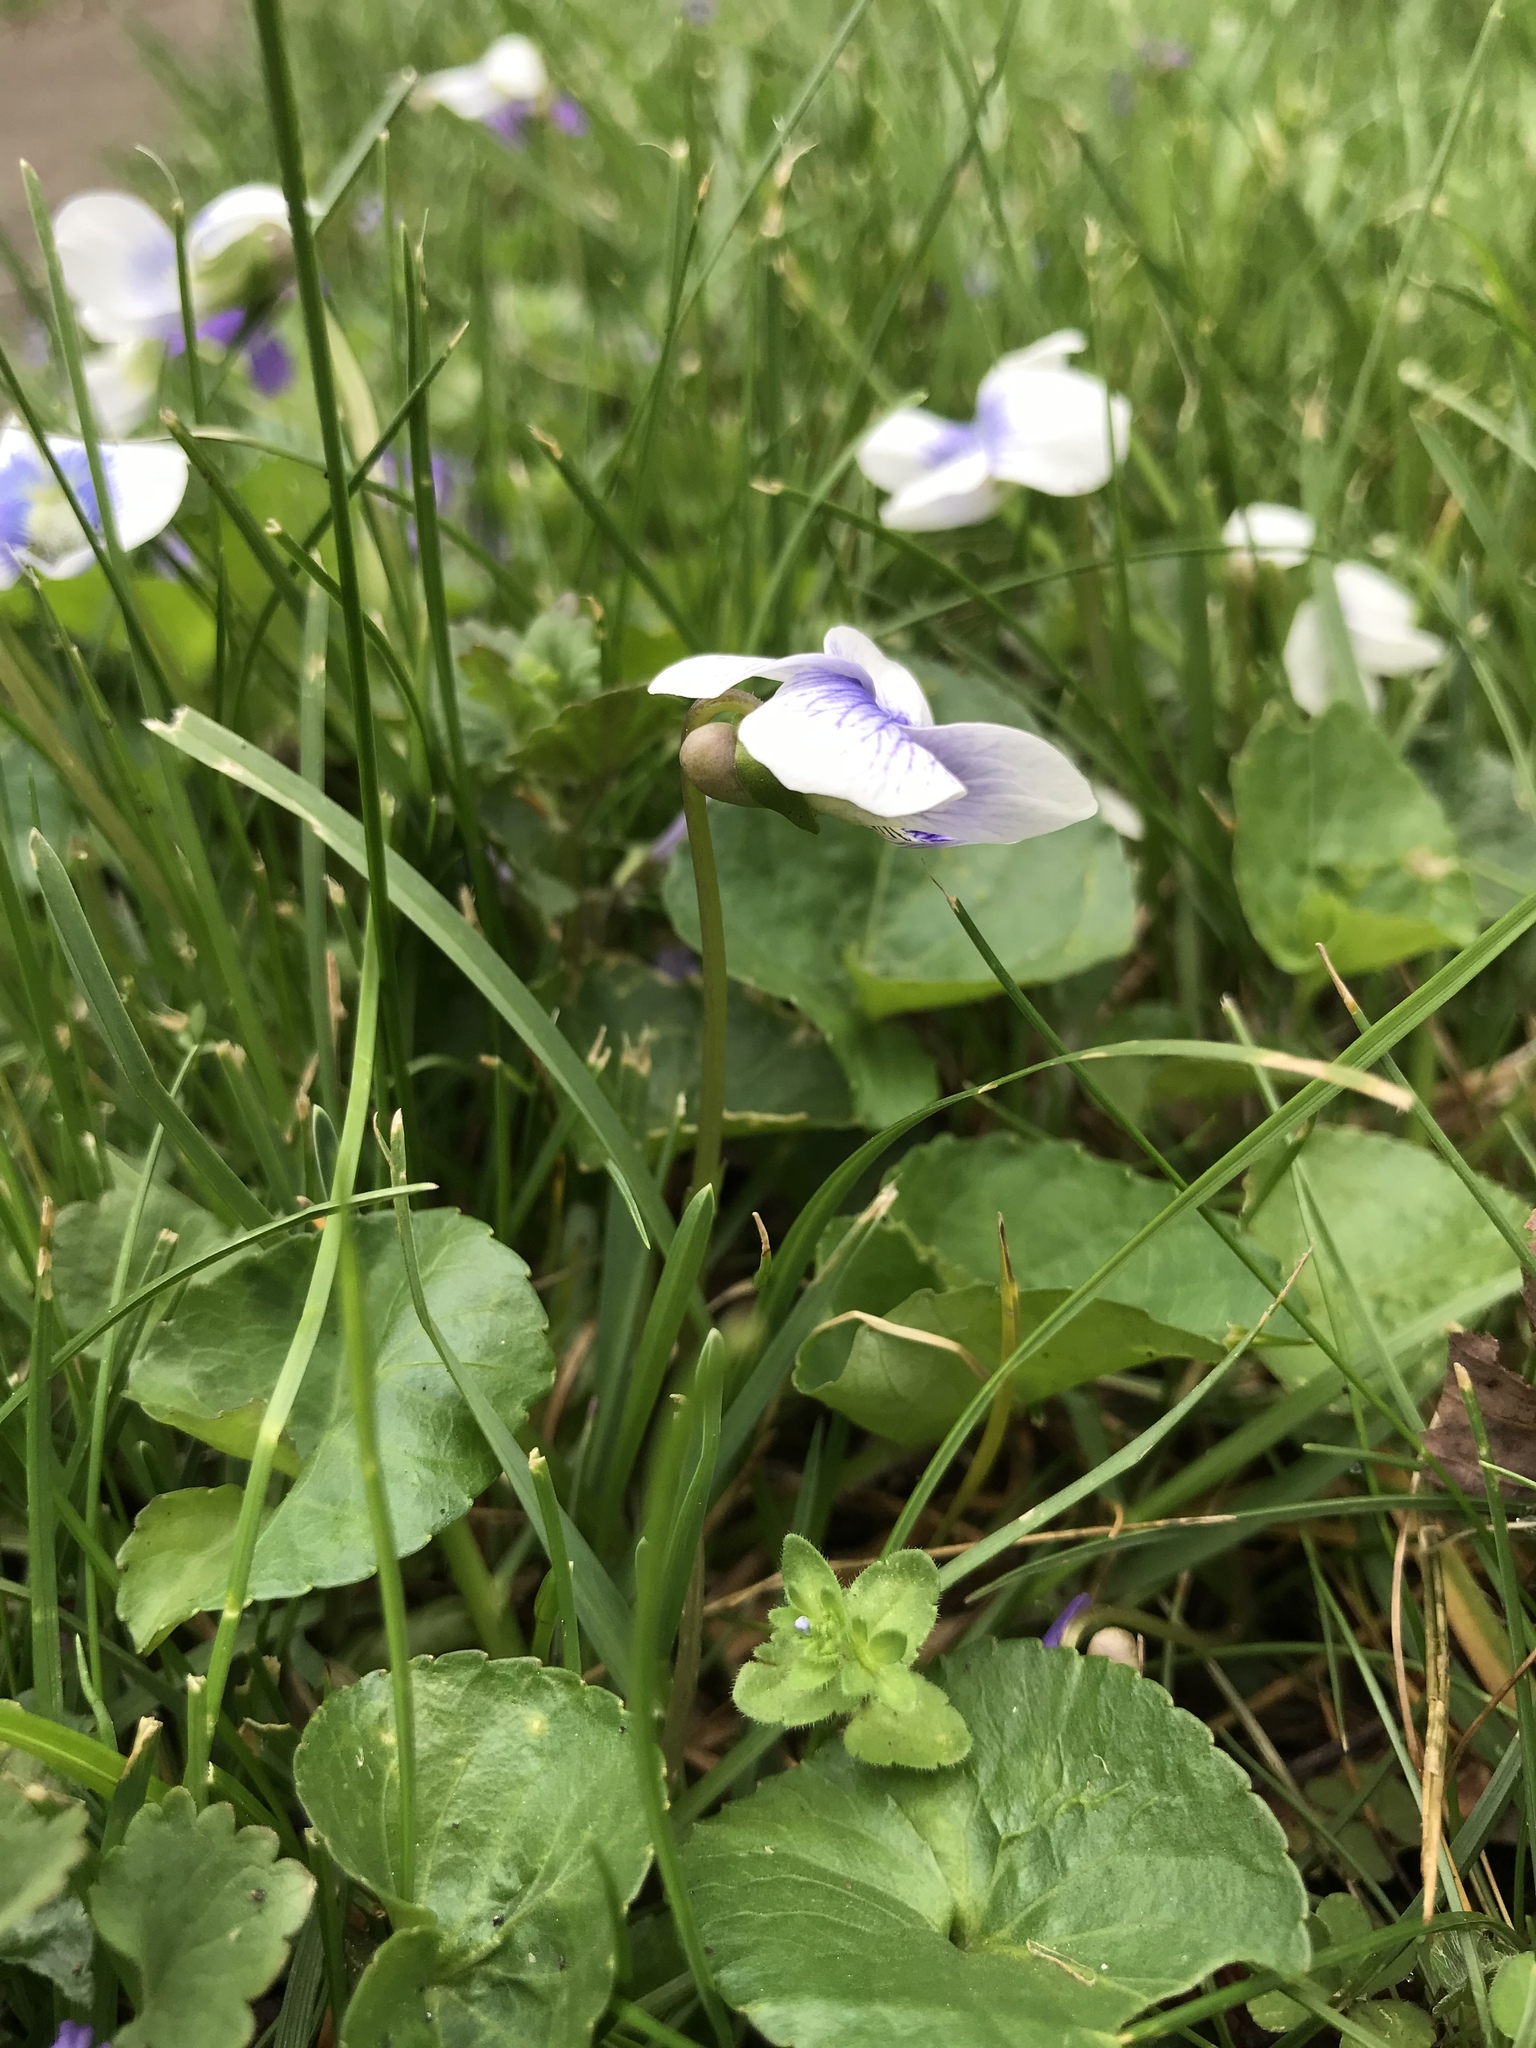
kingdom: Plantae
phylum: Tracheophyta
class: Magnoliopsida
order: Malpighiales
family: Violaceae
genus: Viola
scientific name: Viola sororia
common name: Dooryard violet
